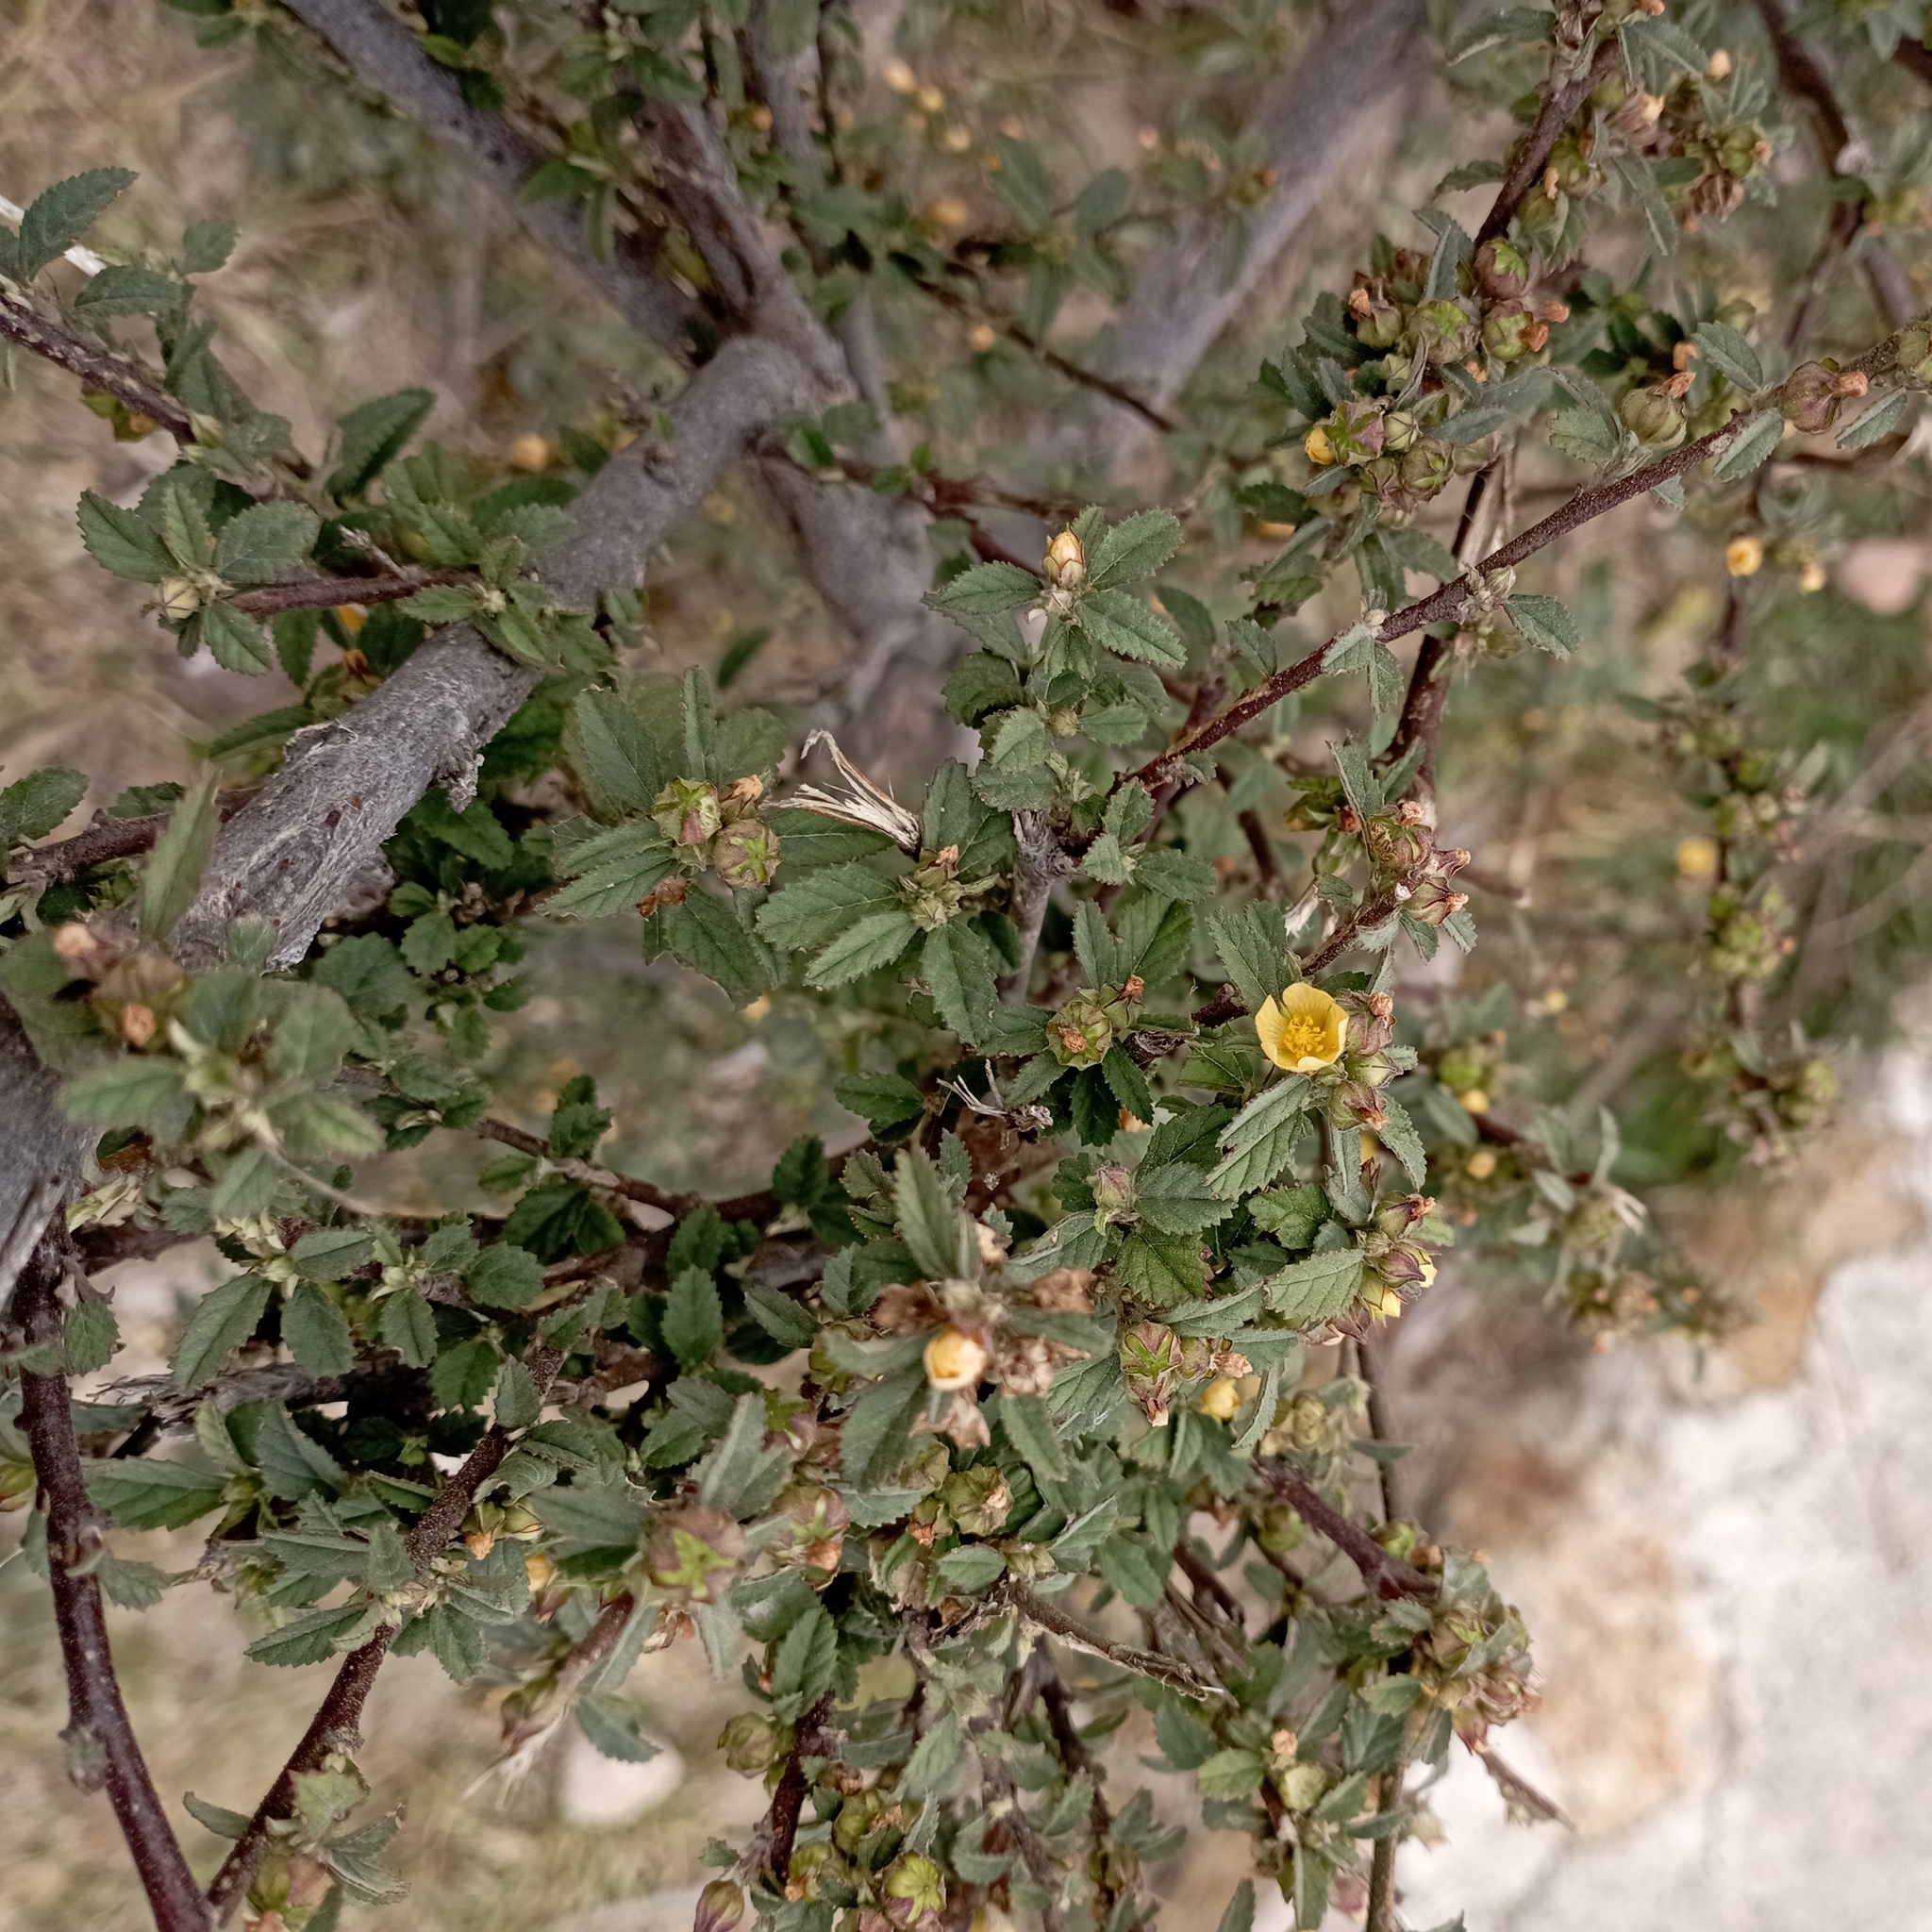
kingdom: Plantae
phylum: Tracheophyta
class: Magnoliopsida
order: Malvales
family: Malvaceae
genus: Sida
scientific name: Sida rhombifolia
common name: Queensland-hemp
